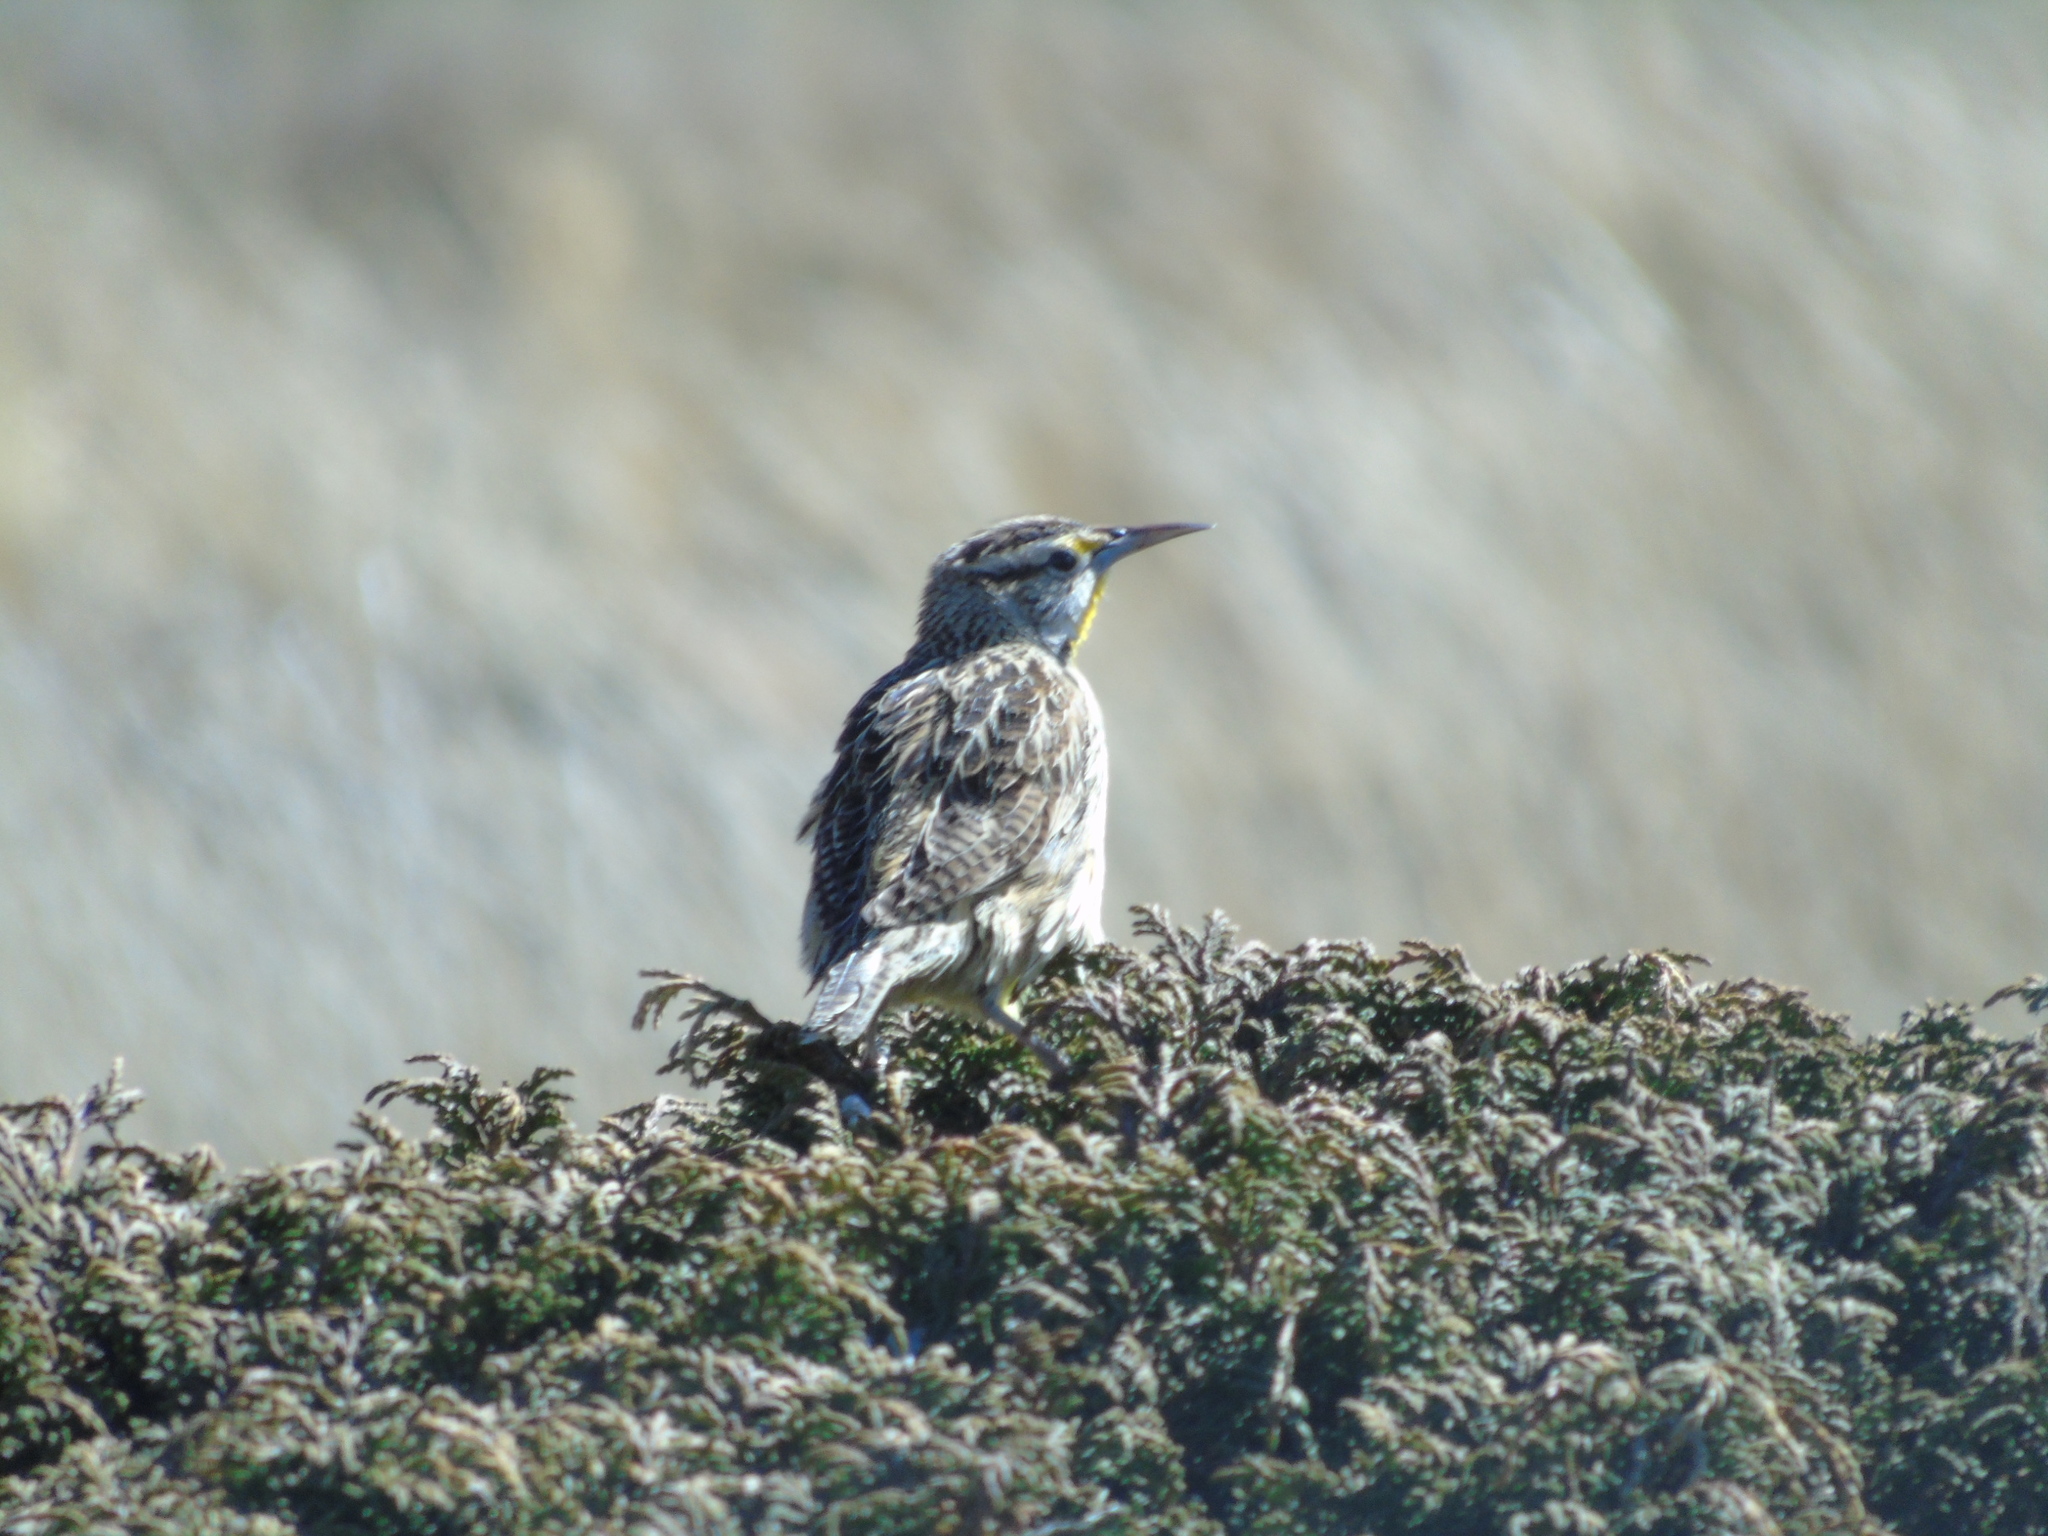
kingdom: Animalia
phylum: Chordata
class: Aves
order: Passeriformes
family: Icteridae
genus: Sturnella
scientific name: Sturnella magna
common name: Eastern meadowlark
